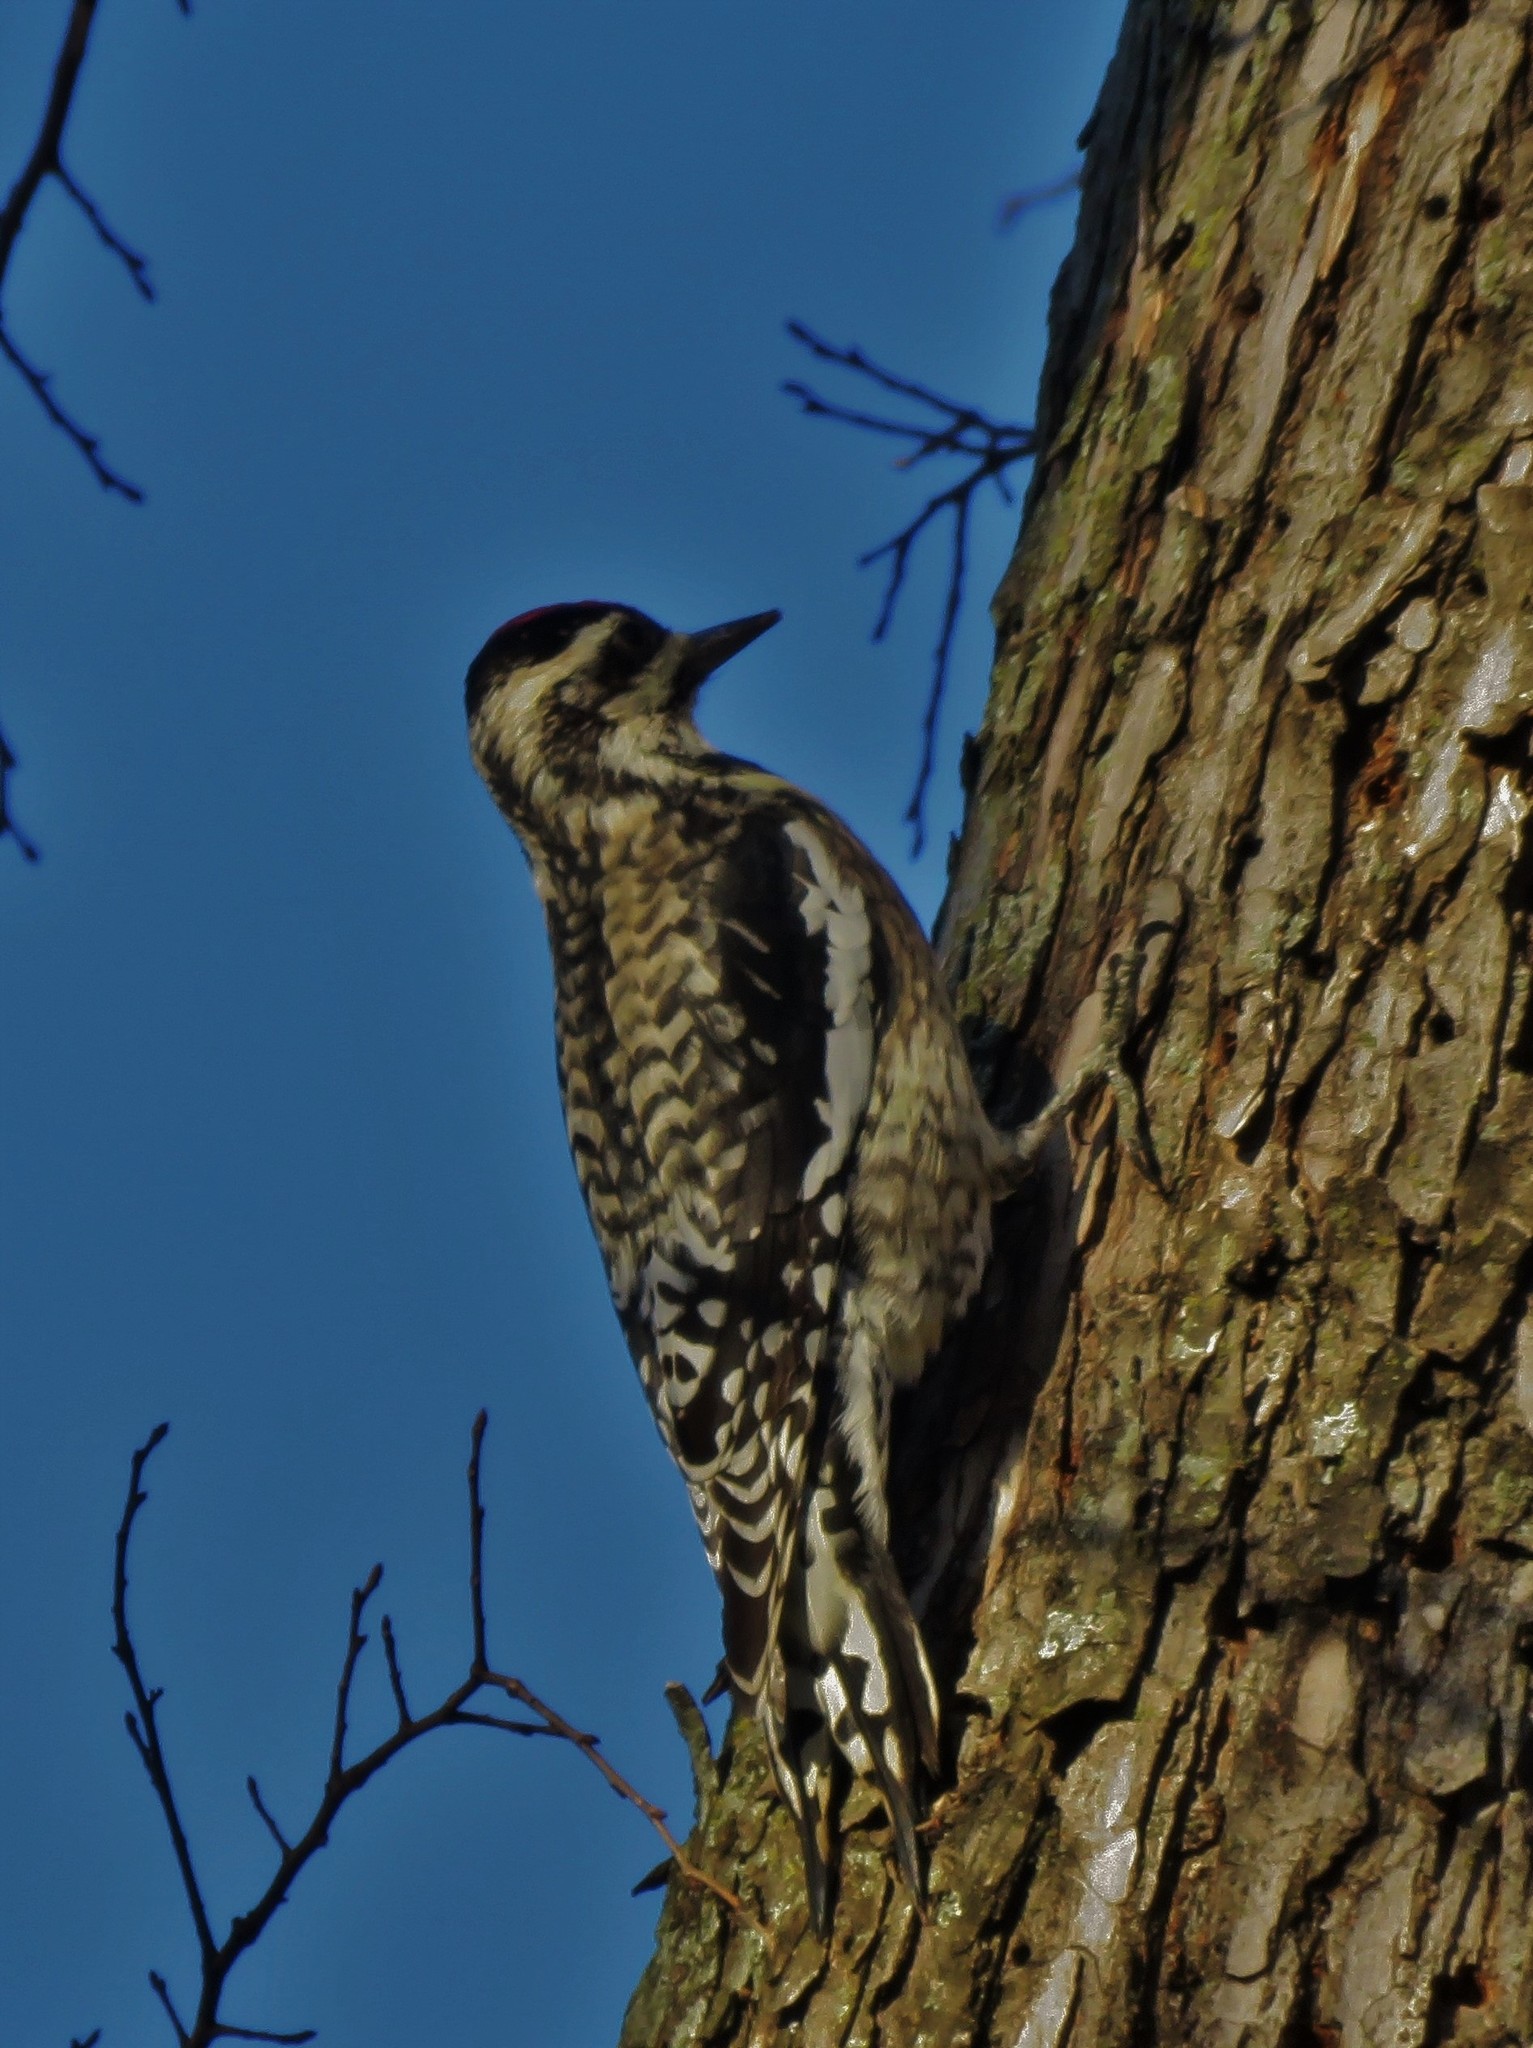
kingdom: Animalia
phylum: Chordata
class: Aves
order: Piciformes
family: Picidae
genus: Sphyrapicus
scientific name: Sphyrapicus varius
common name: Yellow-bellied sapsucker
